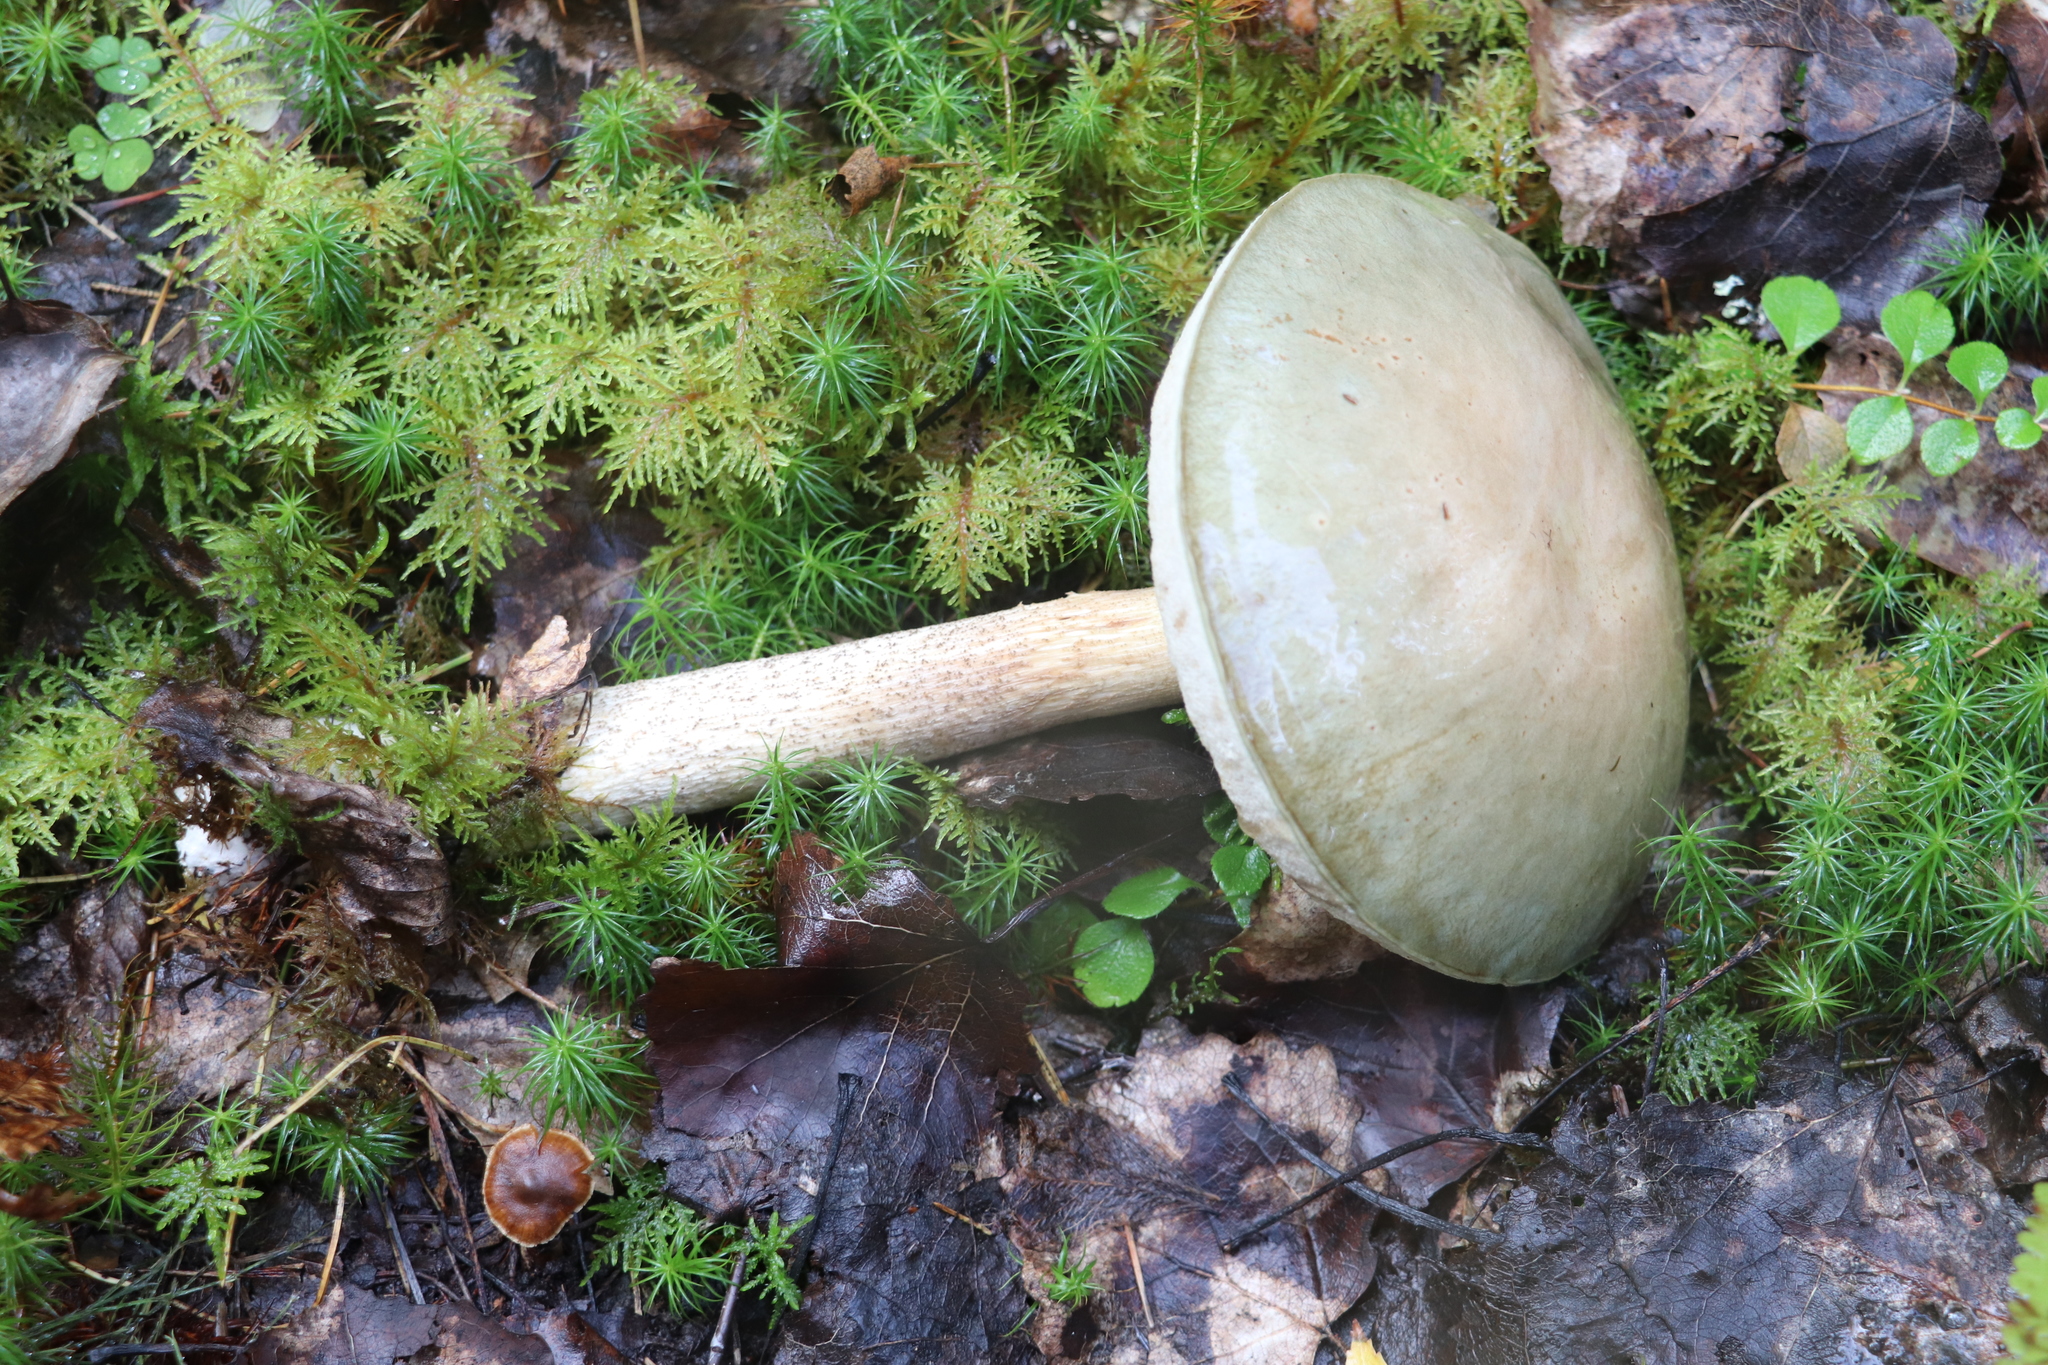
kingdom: Fungi
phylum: Basidiomycota
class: Agaricomycetes
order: Boletales
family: Boletaceae
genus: Leccinum
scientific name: Leccinum holopus
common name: Ghost bolete
